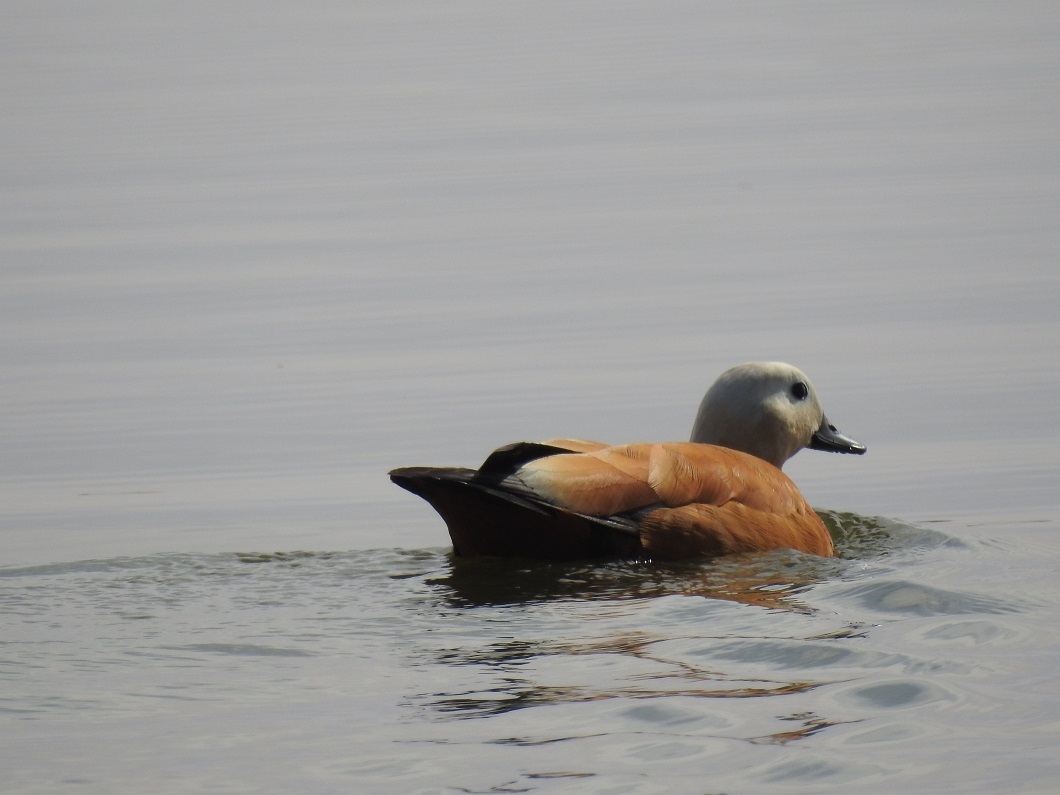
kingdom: Animalia
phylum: Chordata
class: Aves
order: Anseriformes
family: Anatidae
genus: Tadorna
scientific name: Tadorna ferruginea
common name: Ruddy shelduck
